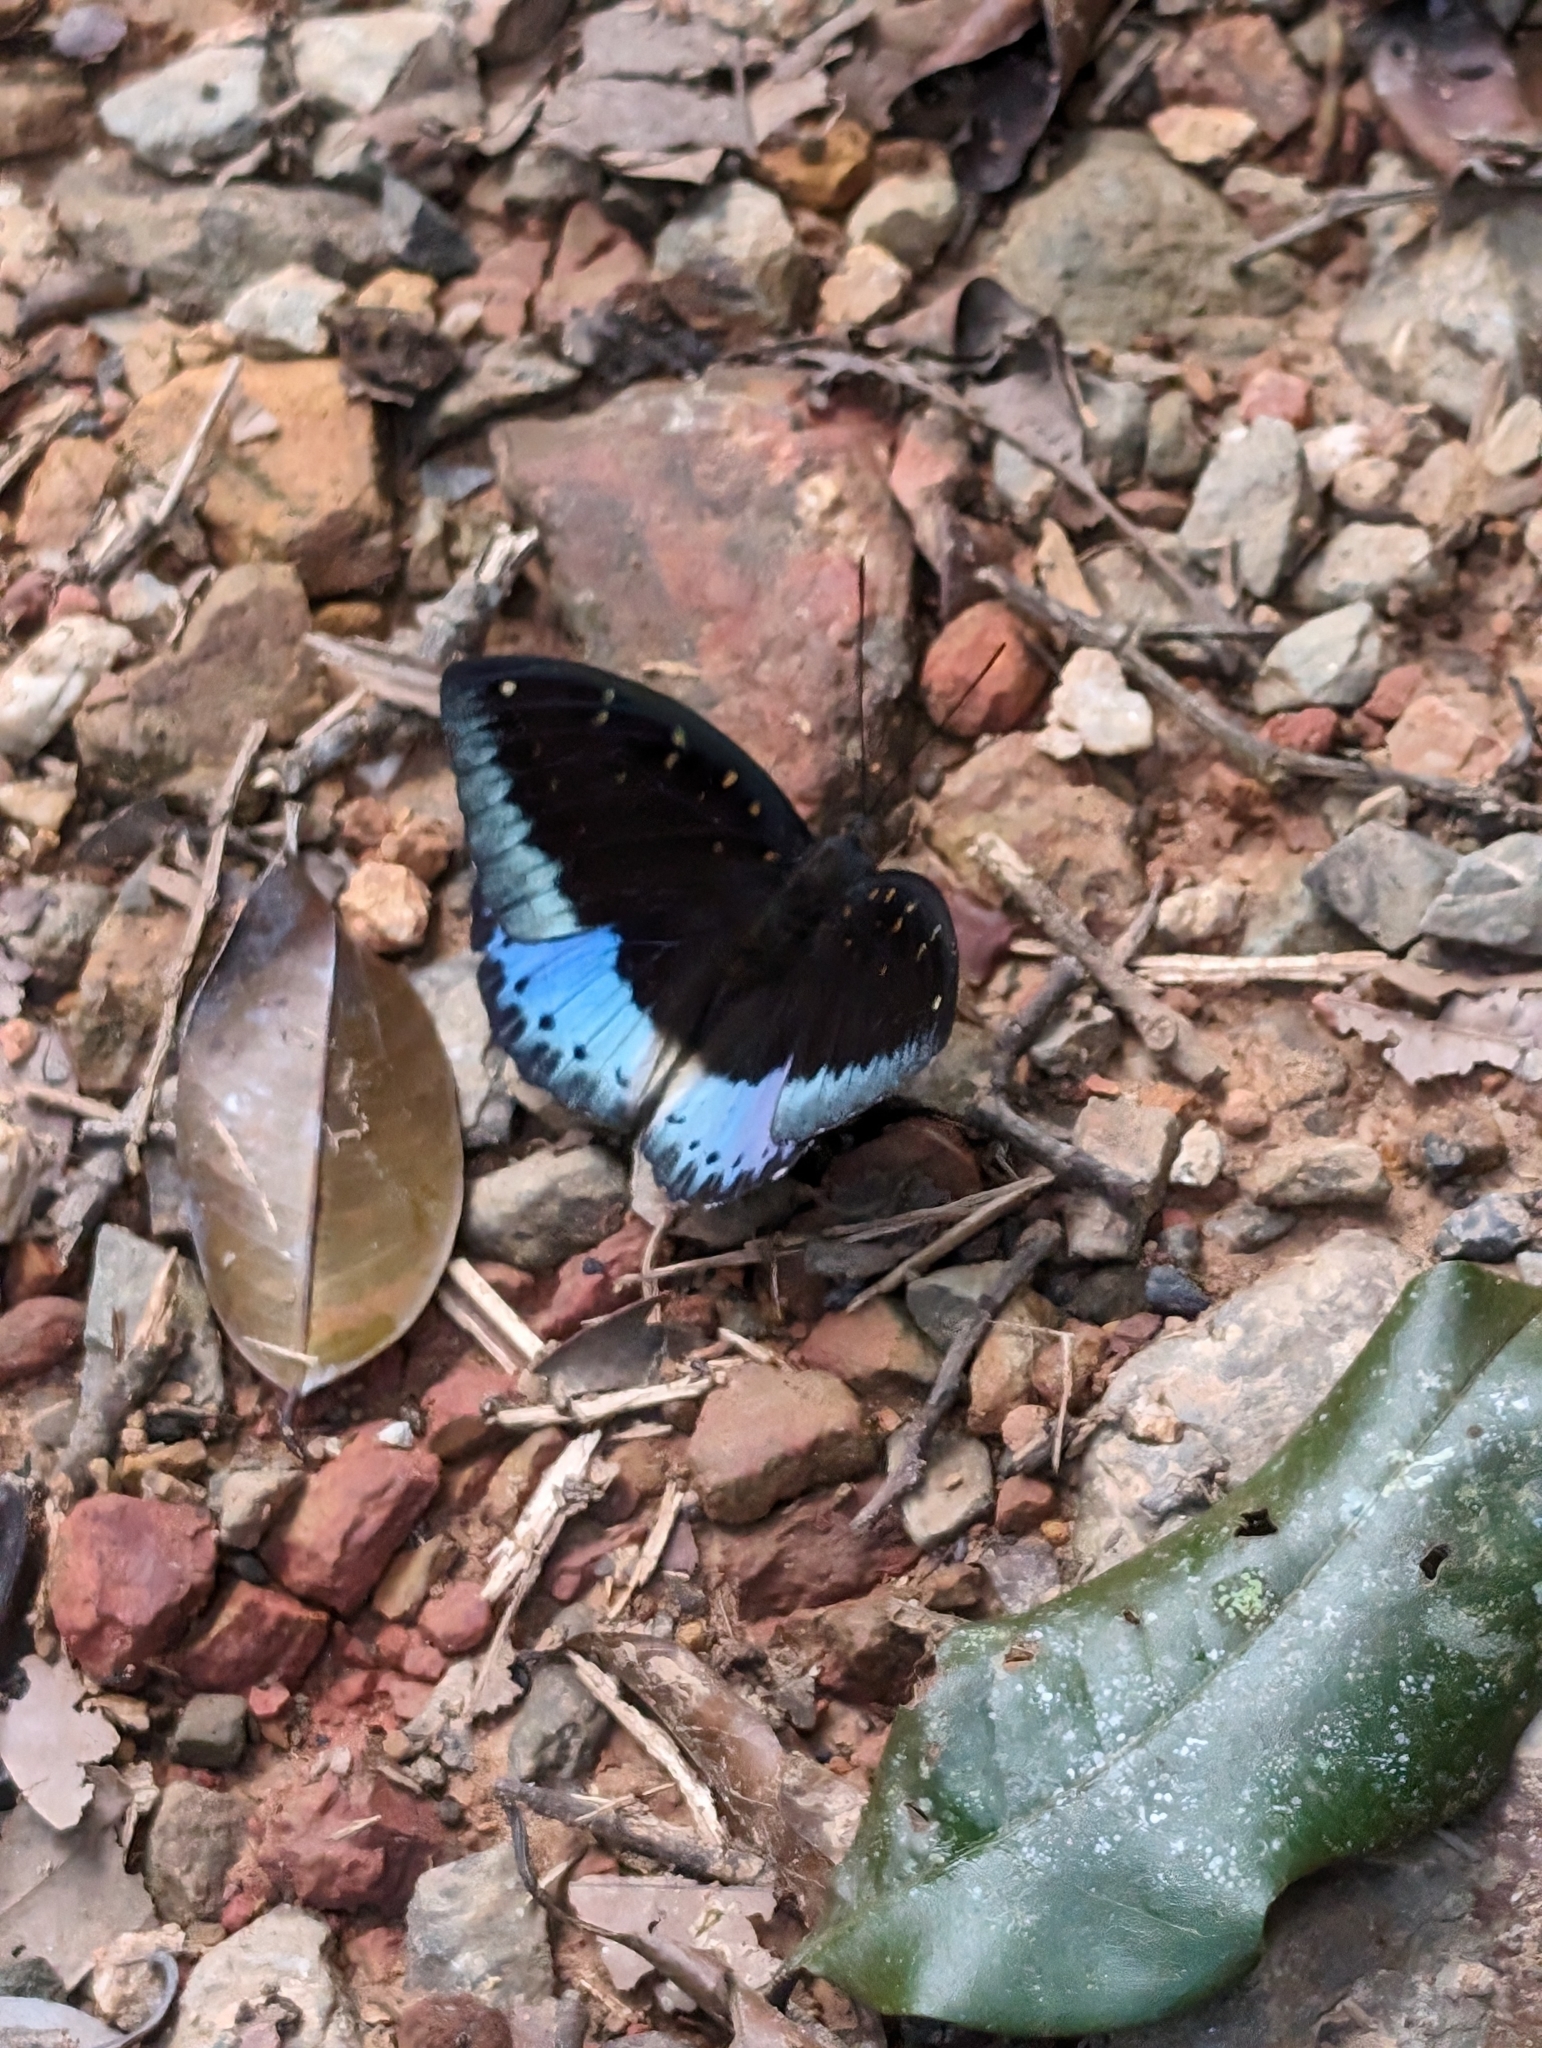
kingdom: Animalia
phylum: Arthropoda
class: Insecta
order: Lepidoptera
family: Nymphalidae
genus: Lexias
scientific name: Lexias dirtea
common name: Black-tipped archduke
